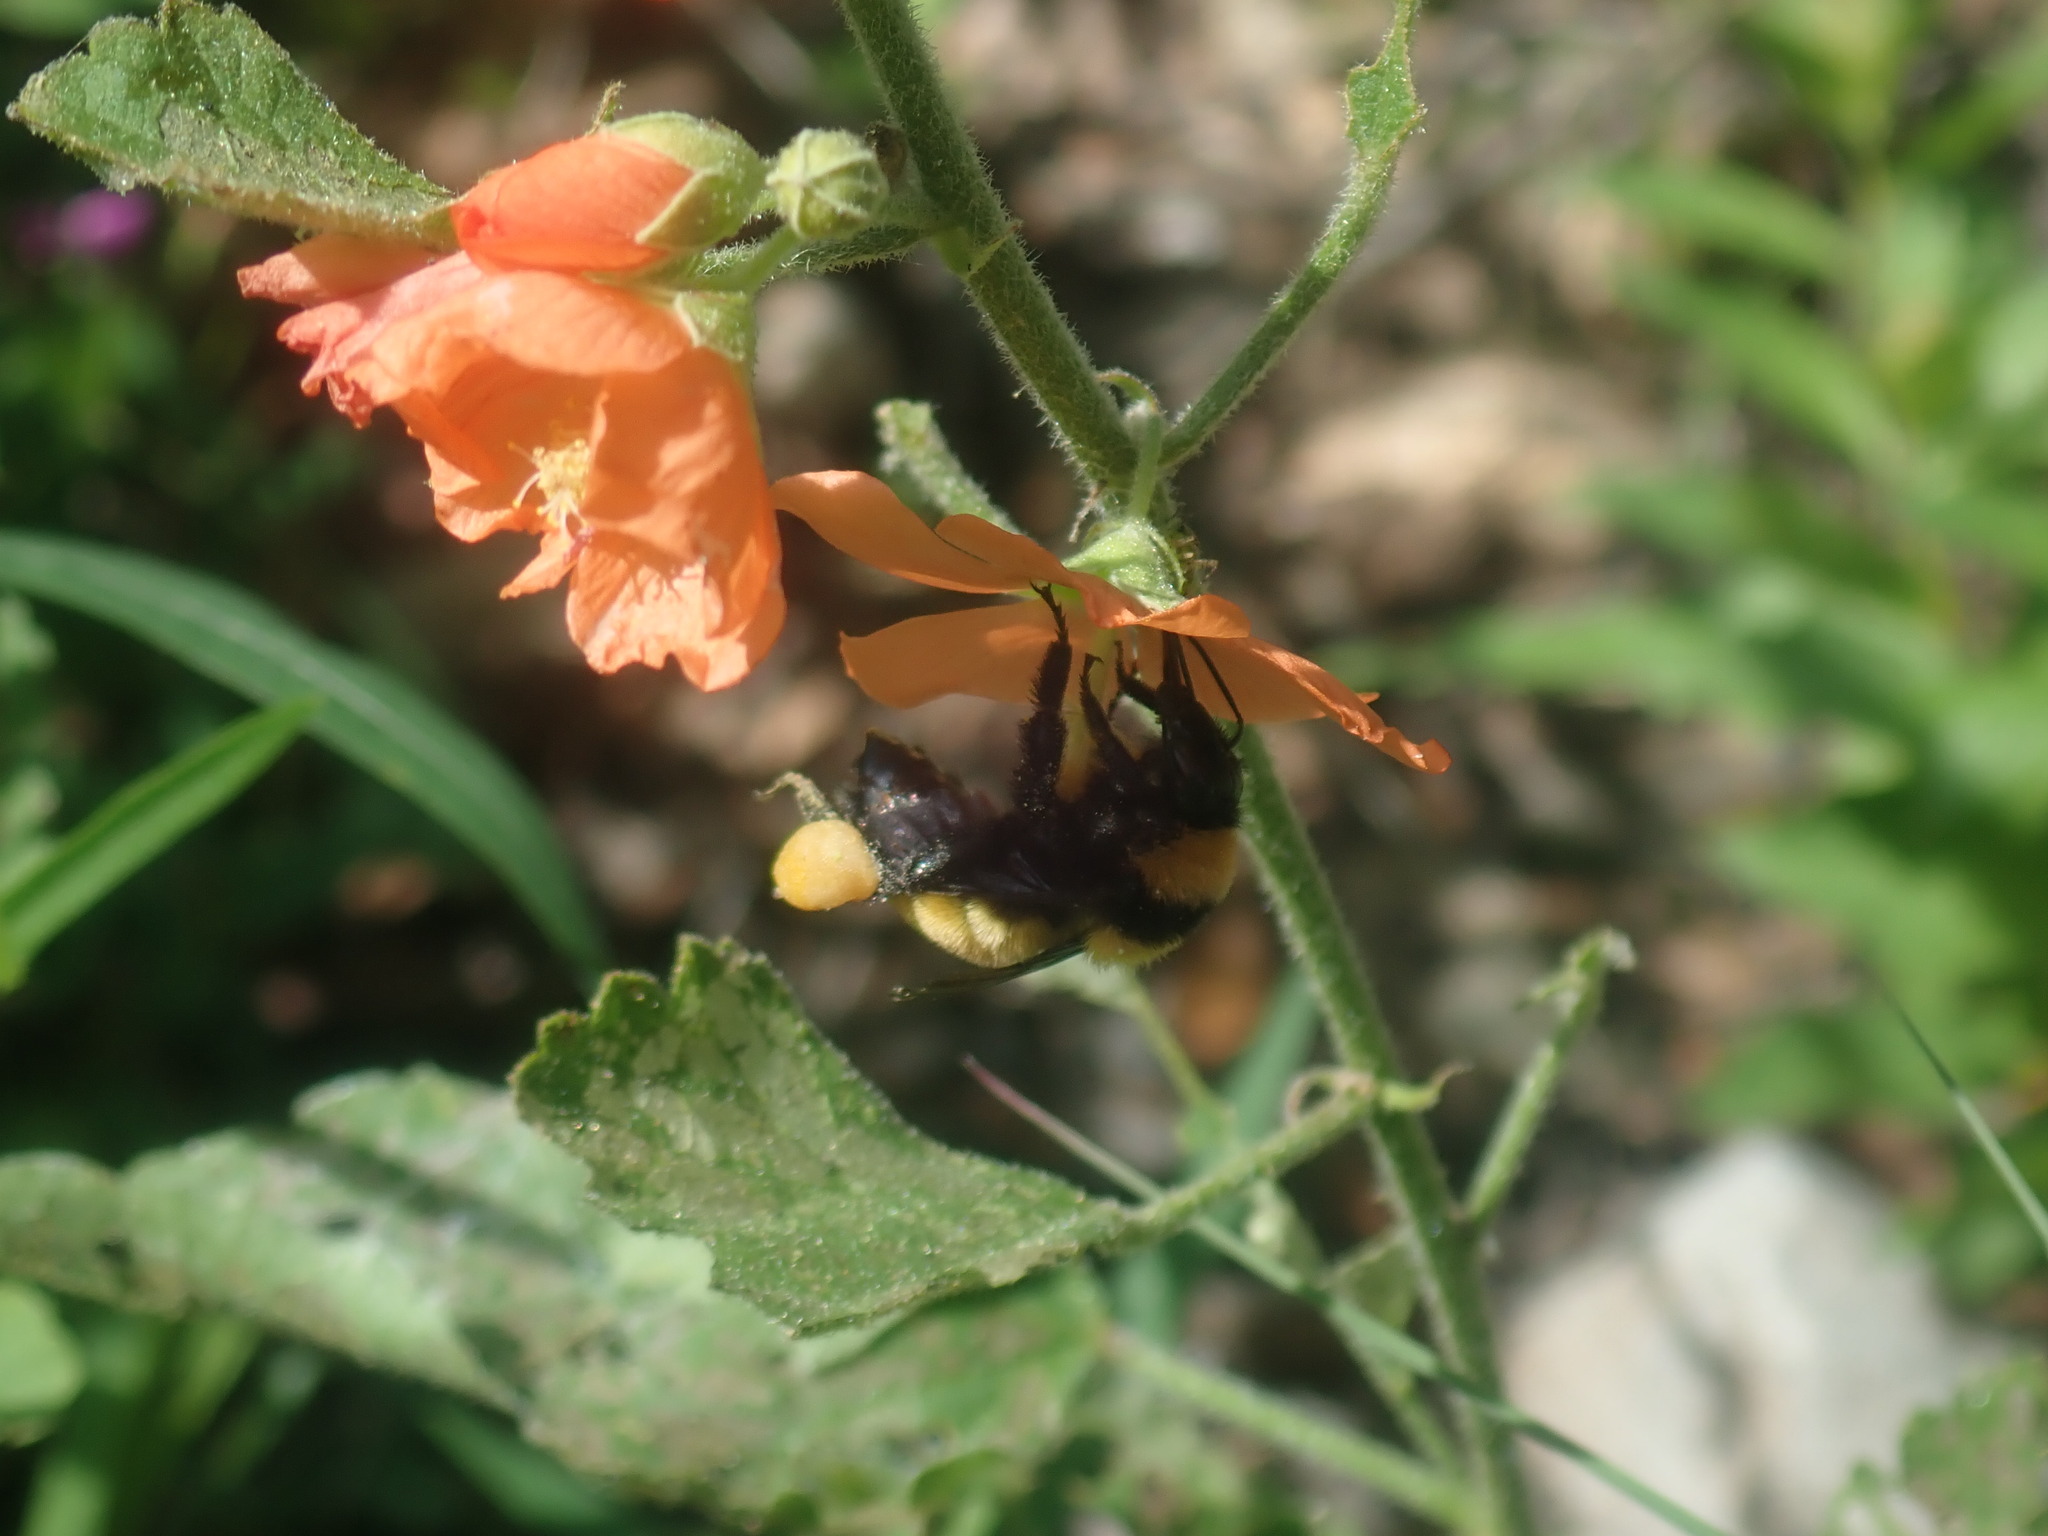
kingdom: Animalia
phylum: Arthropoda
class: Insecta
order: Hymenoptera
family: Apidae
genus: Bombus
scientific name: Bombus sonorus
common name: Sonoran bumble bee
